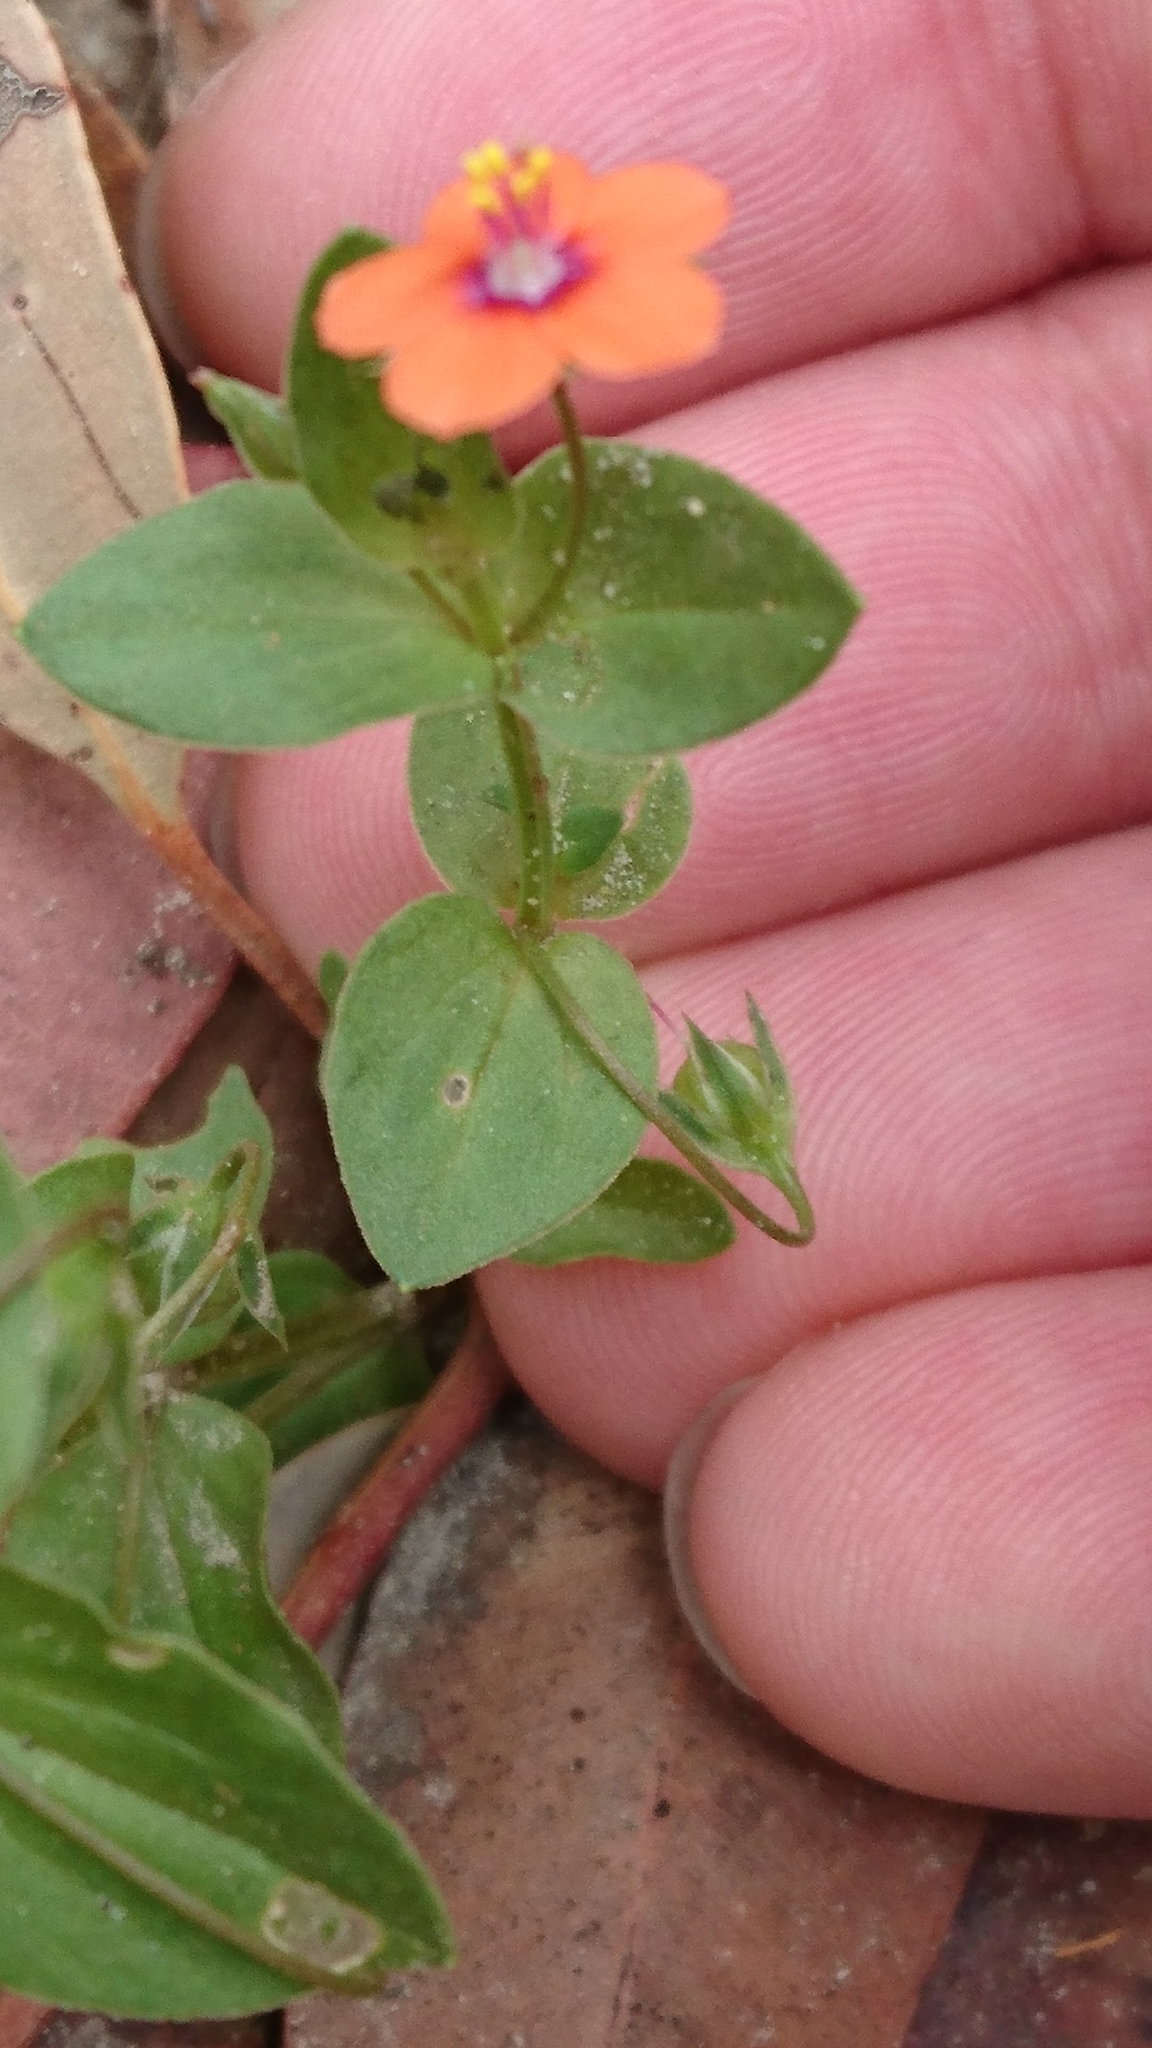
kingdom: Plantae
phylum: Tracheophyta
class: Magnoliopsida
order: Ericales
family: Primulaceae
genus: Lysimachia
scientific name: Lysimachia arvensis
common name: Scarlet pimpernel
